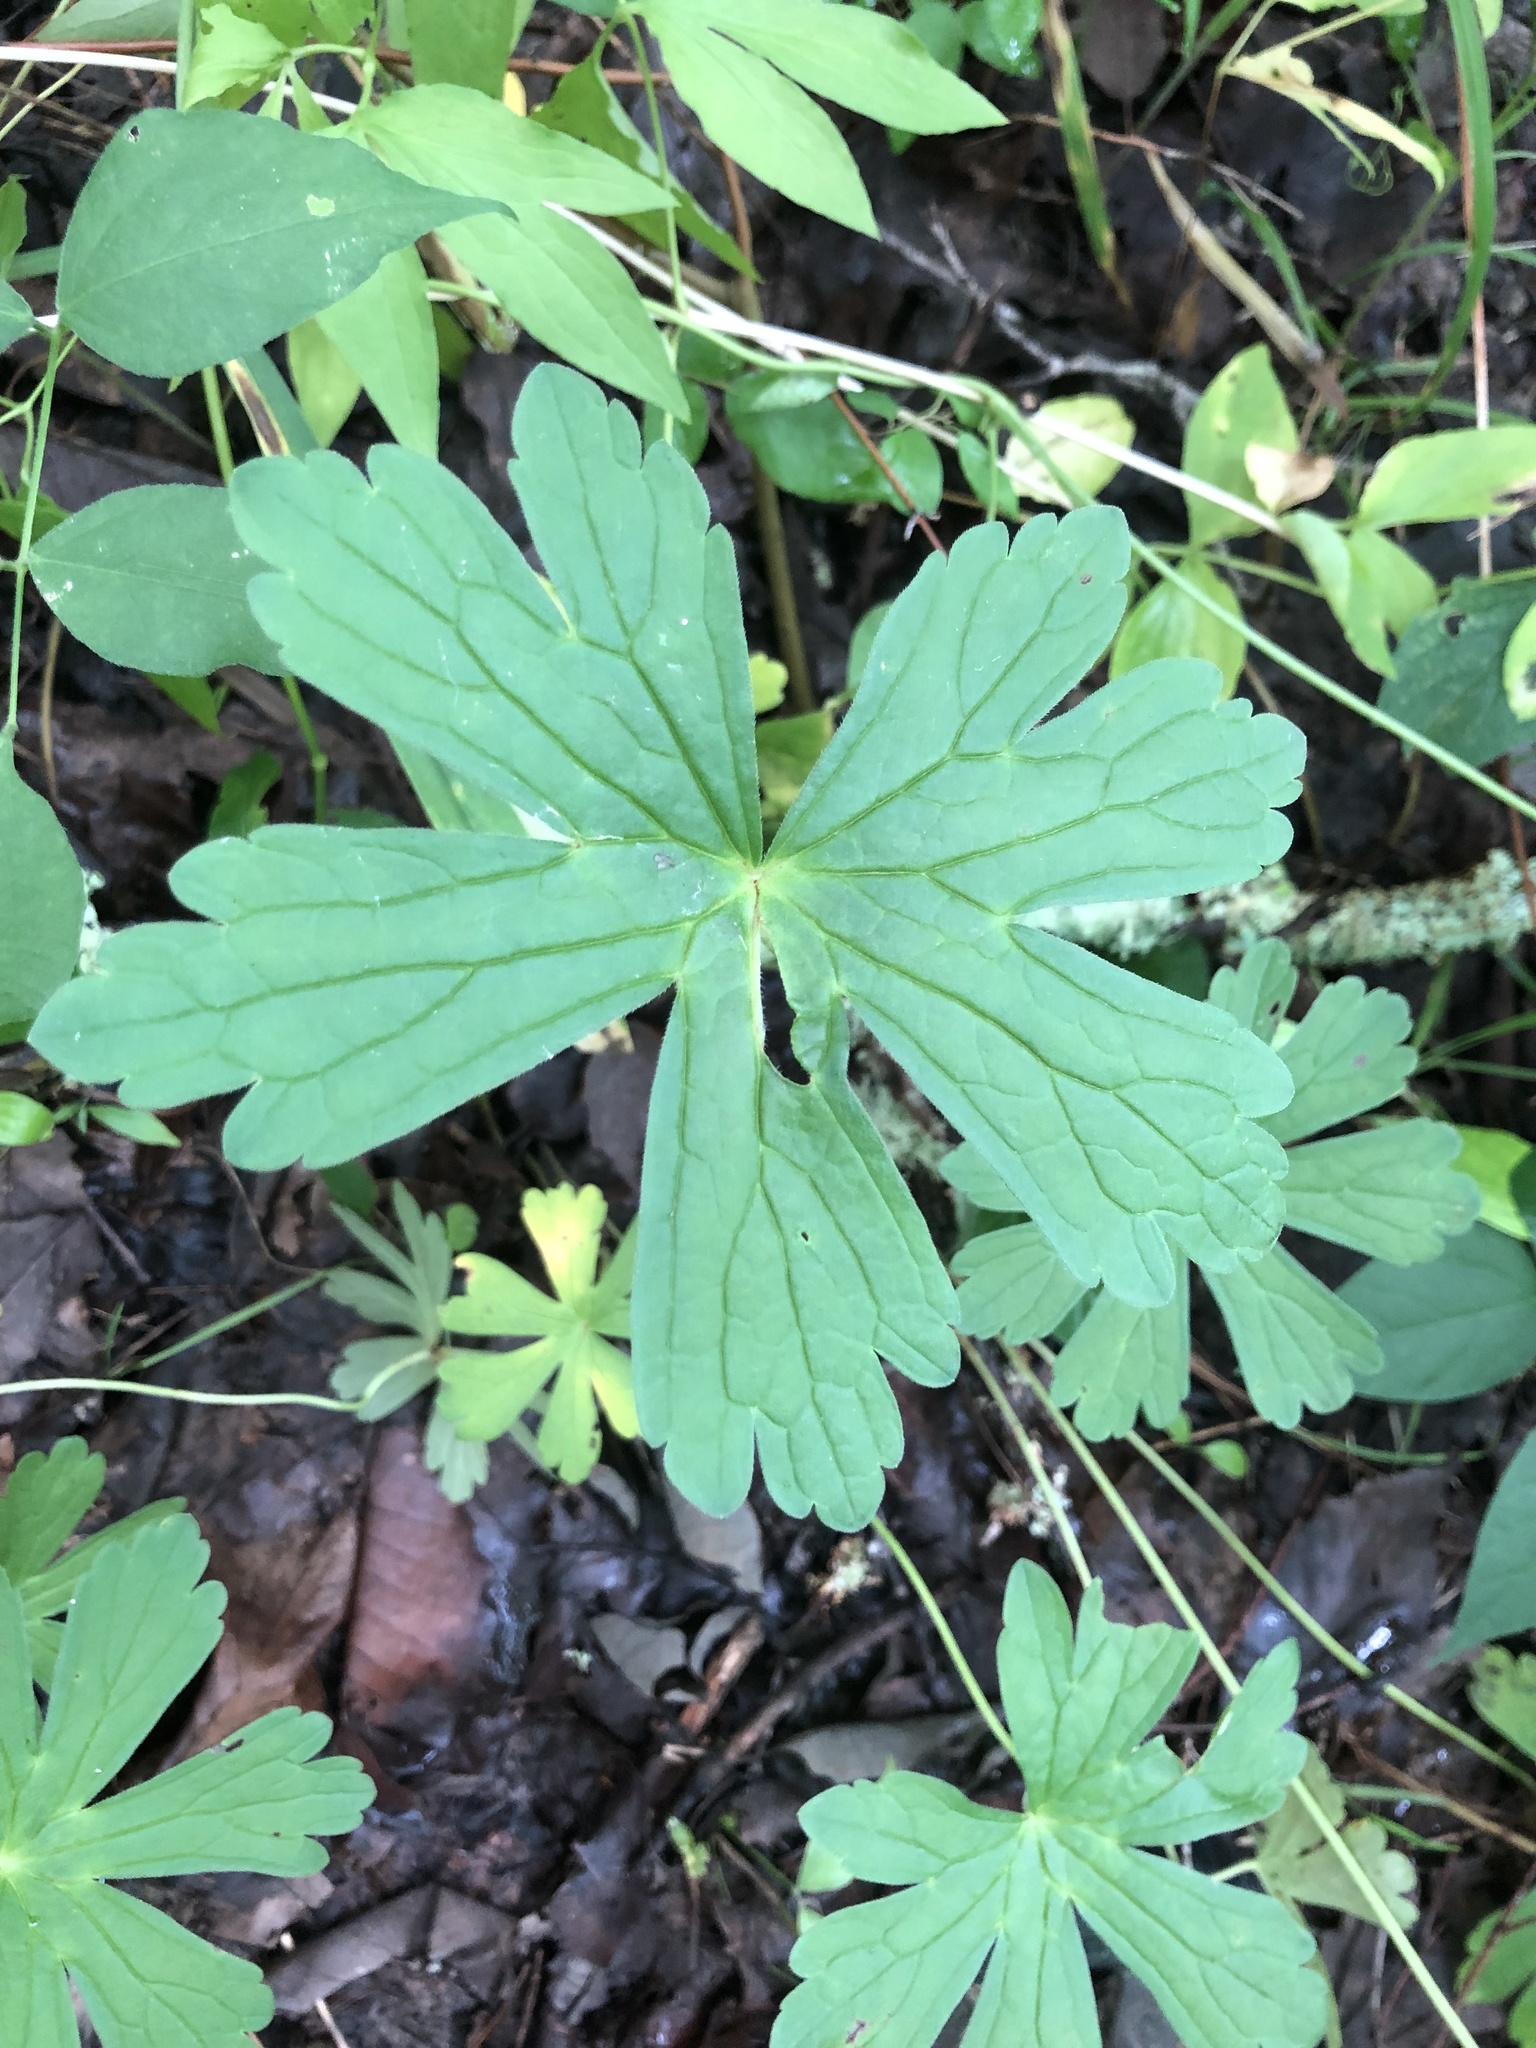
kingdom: Plantae
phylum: Tracheophyta
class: Magnoliopsida
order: Geraniales
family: Geraniaceae
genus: Geranium
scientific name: Geranium maculatum
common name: Spotted geranium
